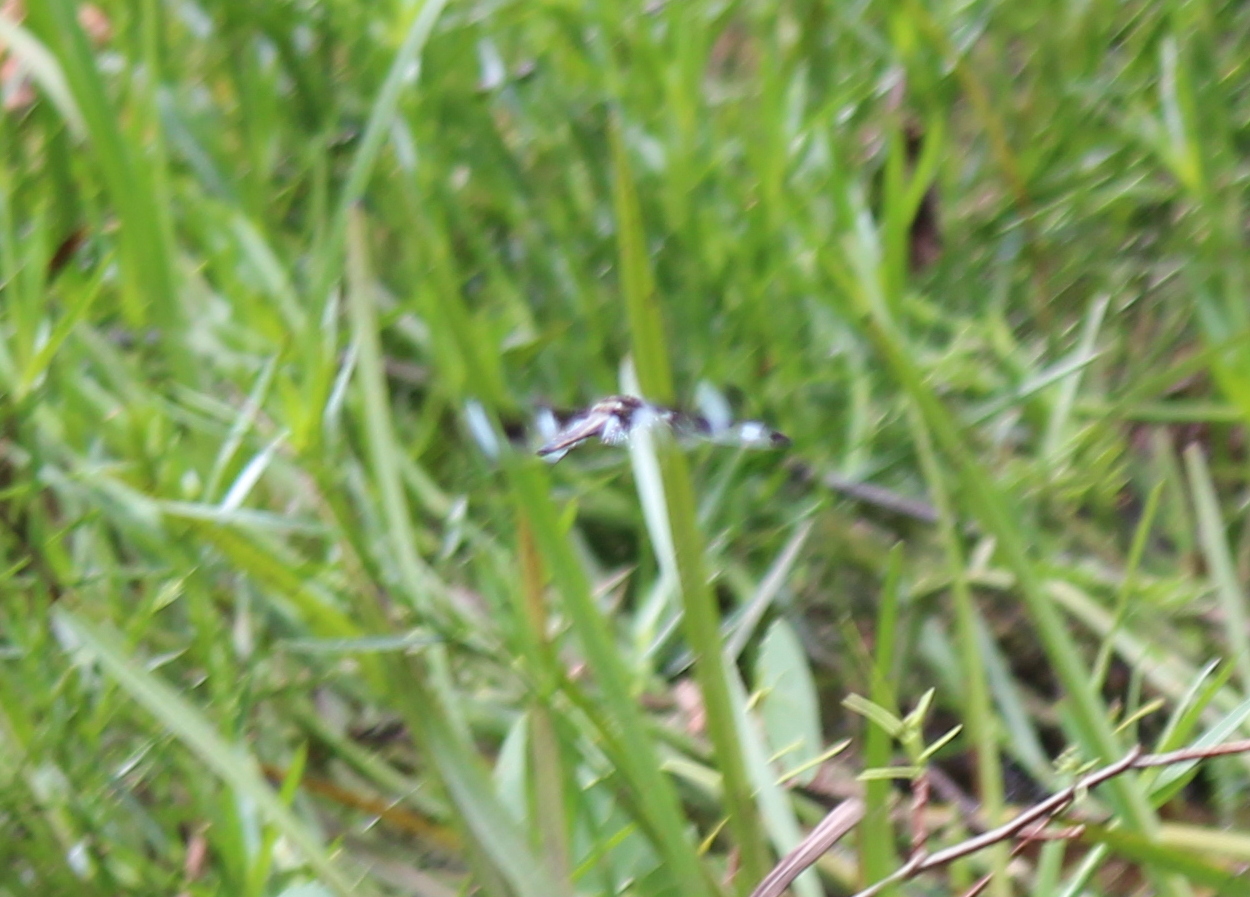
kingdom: Animalia
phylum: Arthropoda
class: Insecta
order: Odonata
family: Libellulidae
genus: Libellula
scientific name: Libellula pulchella
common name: Twelve-spotted skimmer
